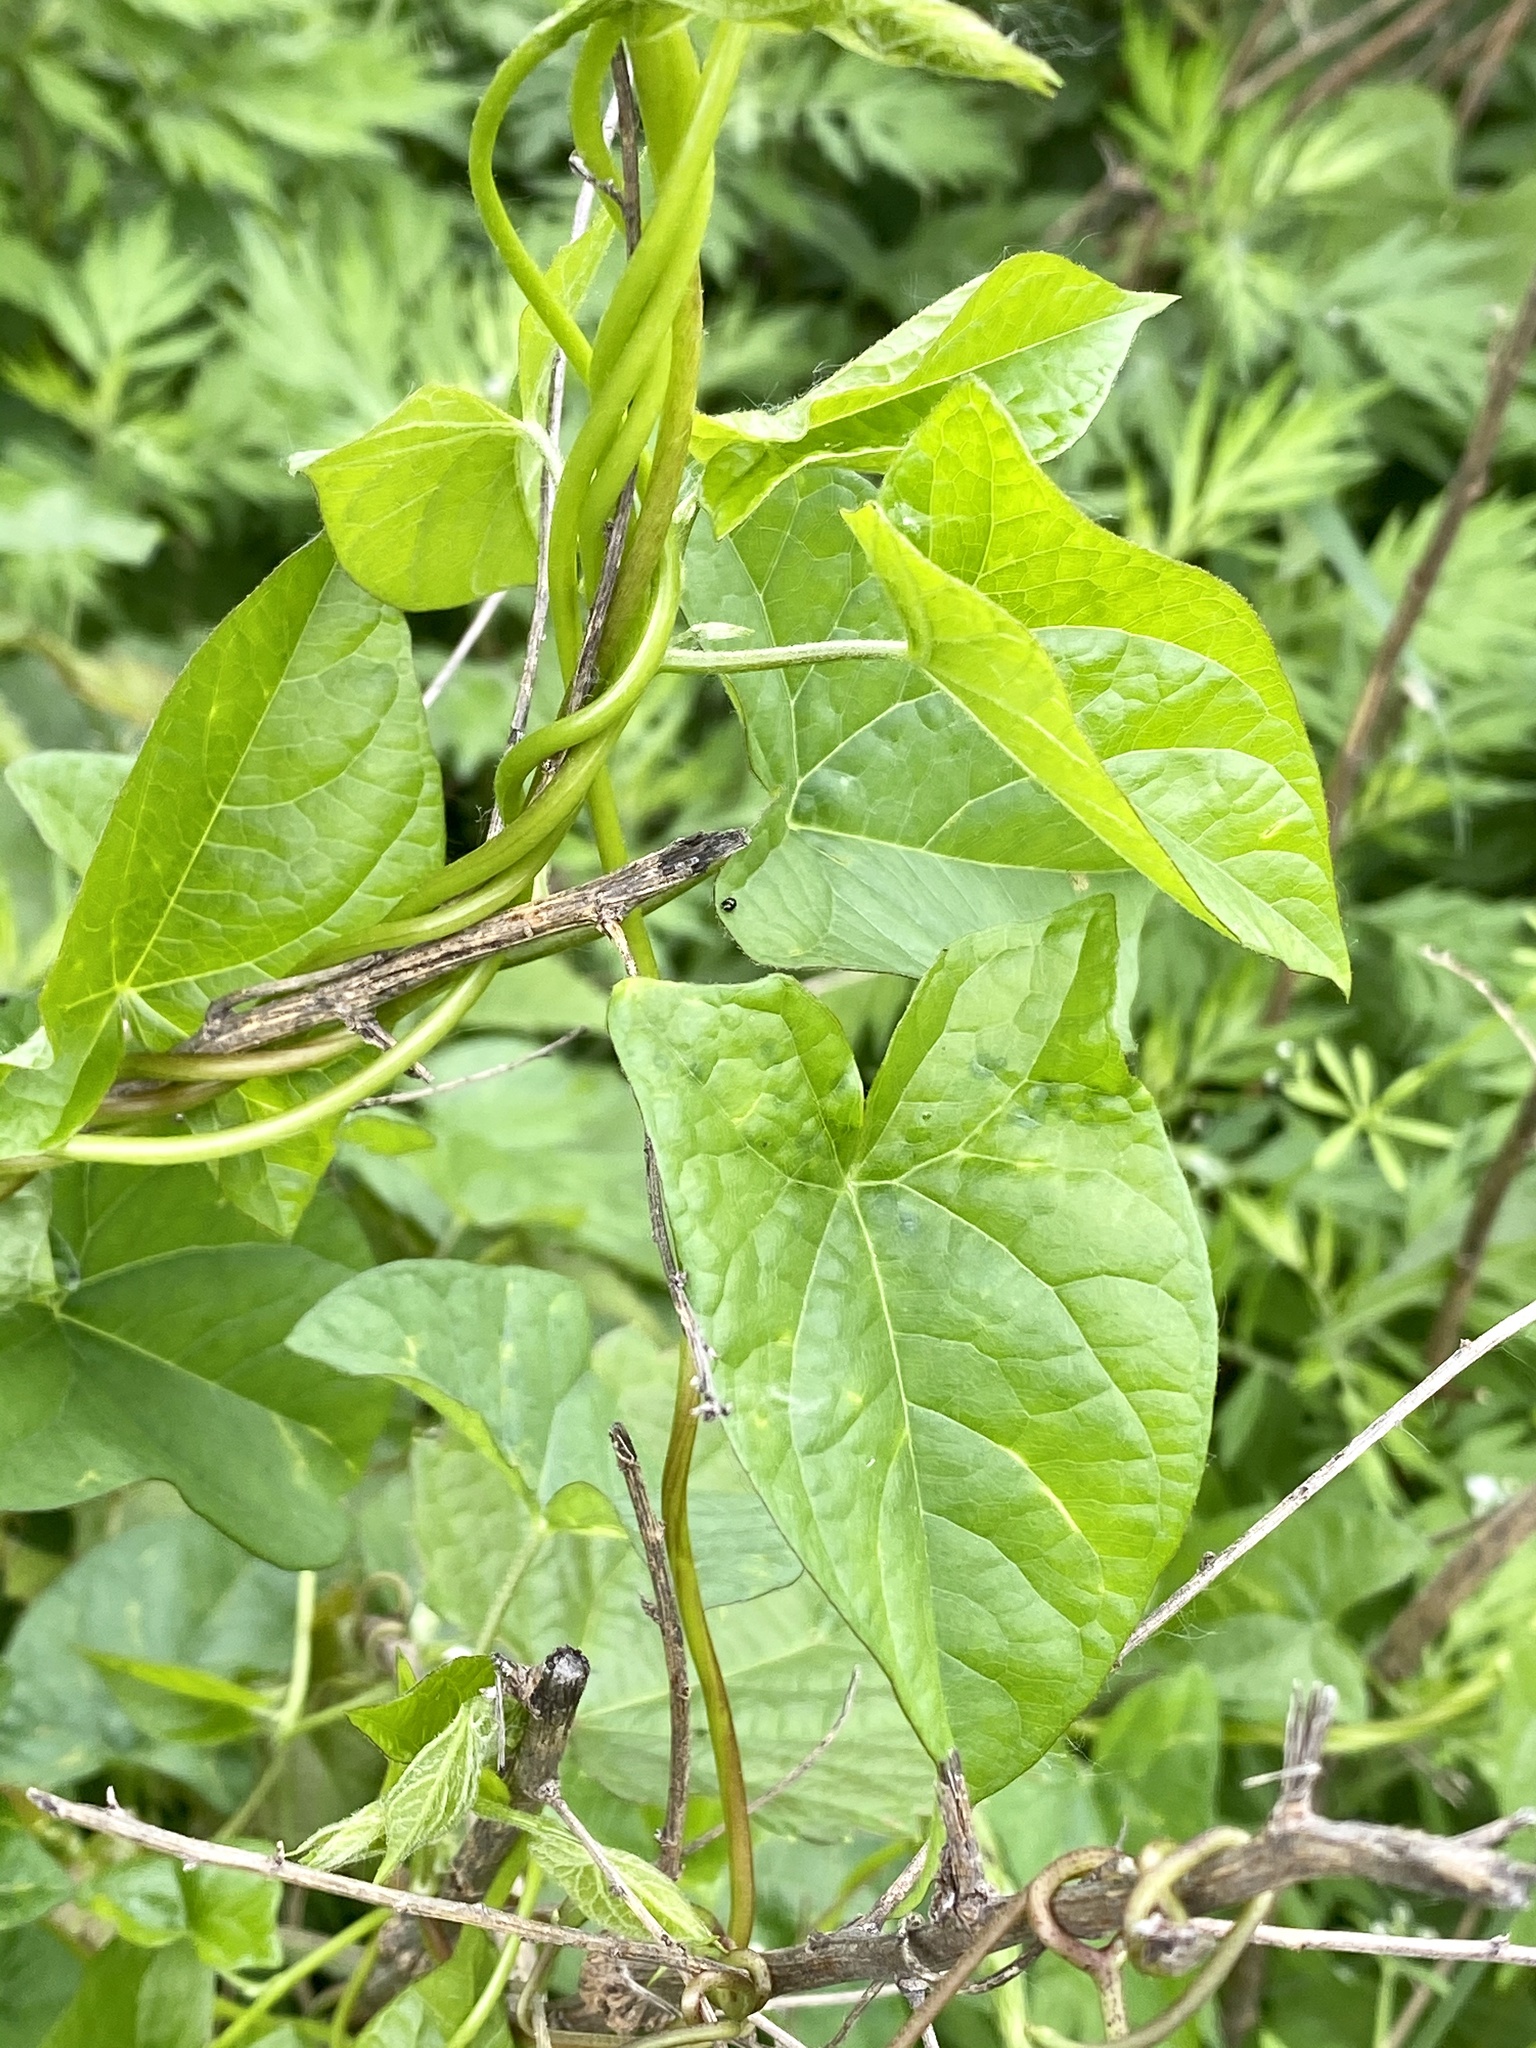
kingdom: Plantae
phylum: Tracheophyta
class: Magnoliopsida
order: Solanales
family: Convolvulaceae
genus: Calystegia
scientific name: Calystegia sepium
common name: Hedge bindweed
